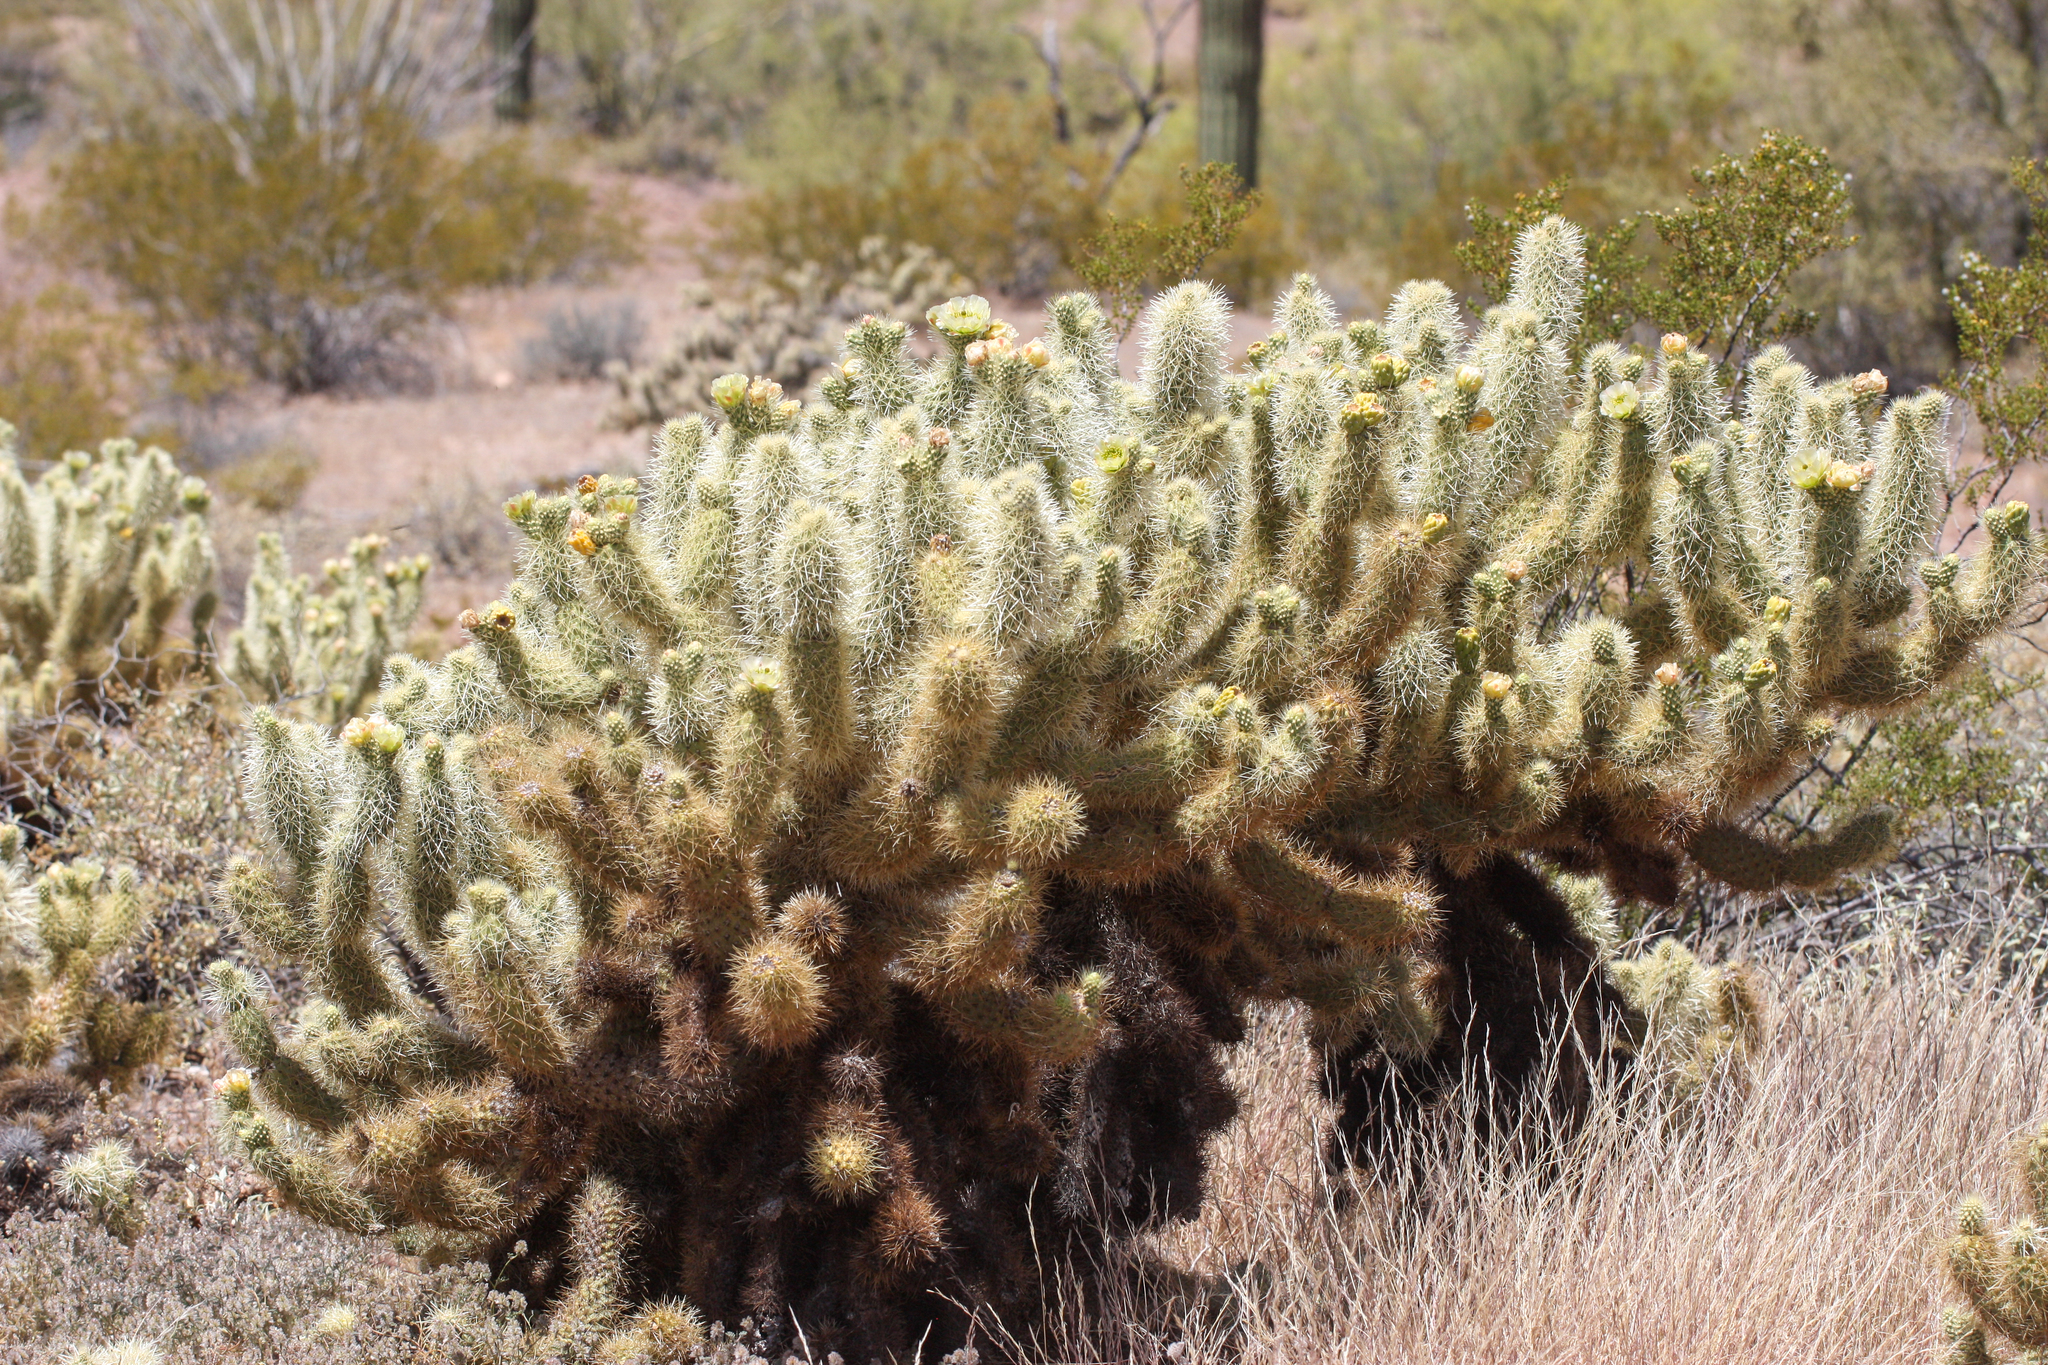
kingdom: Plantae
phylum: Tracheophyta
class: Magnoliopsida
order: Caryophyllales
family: Cactaceae
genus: Cylindropuntia
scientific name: Cylindropuntia fosbergii
